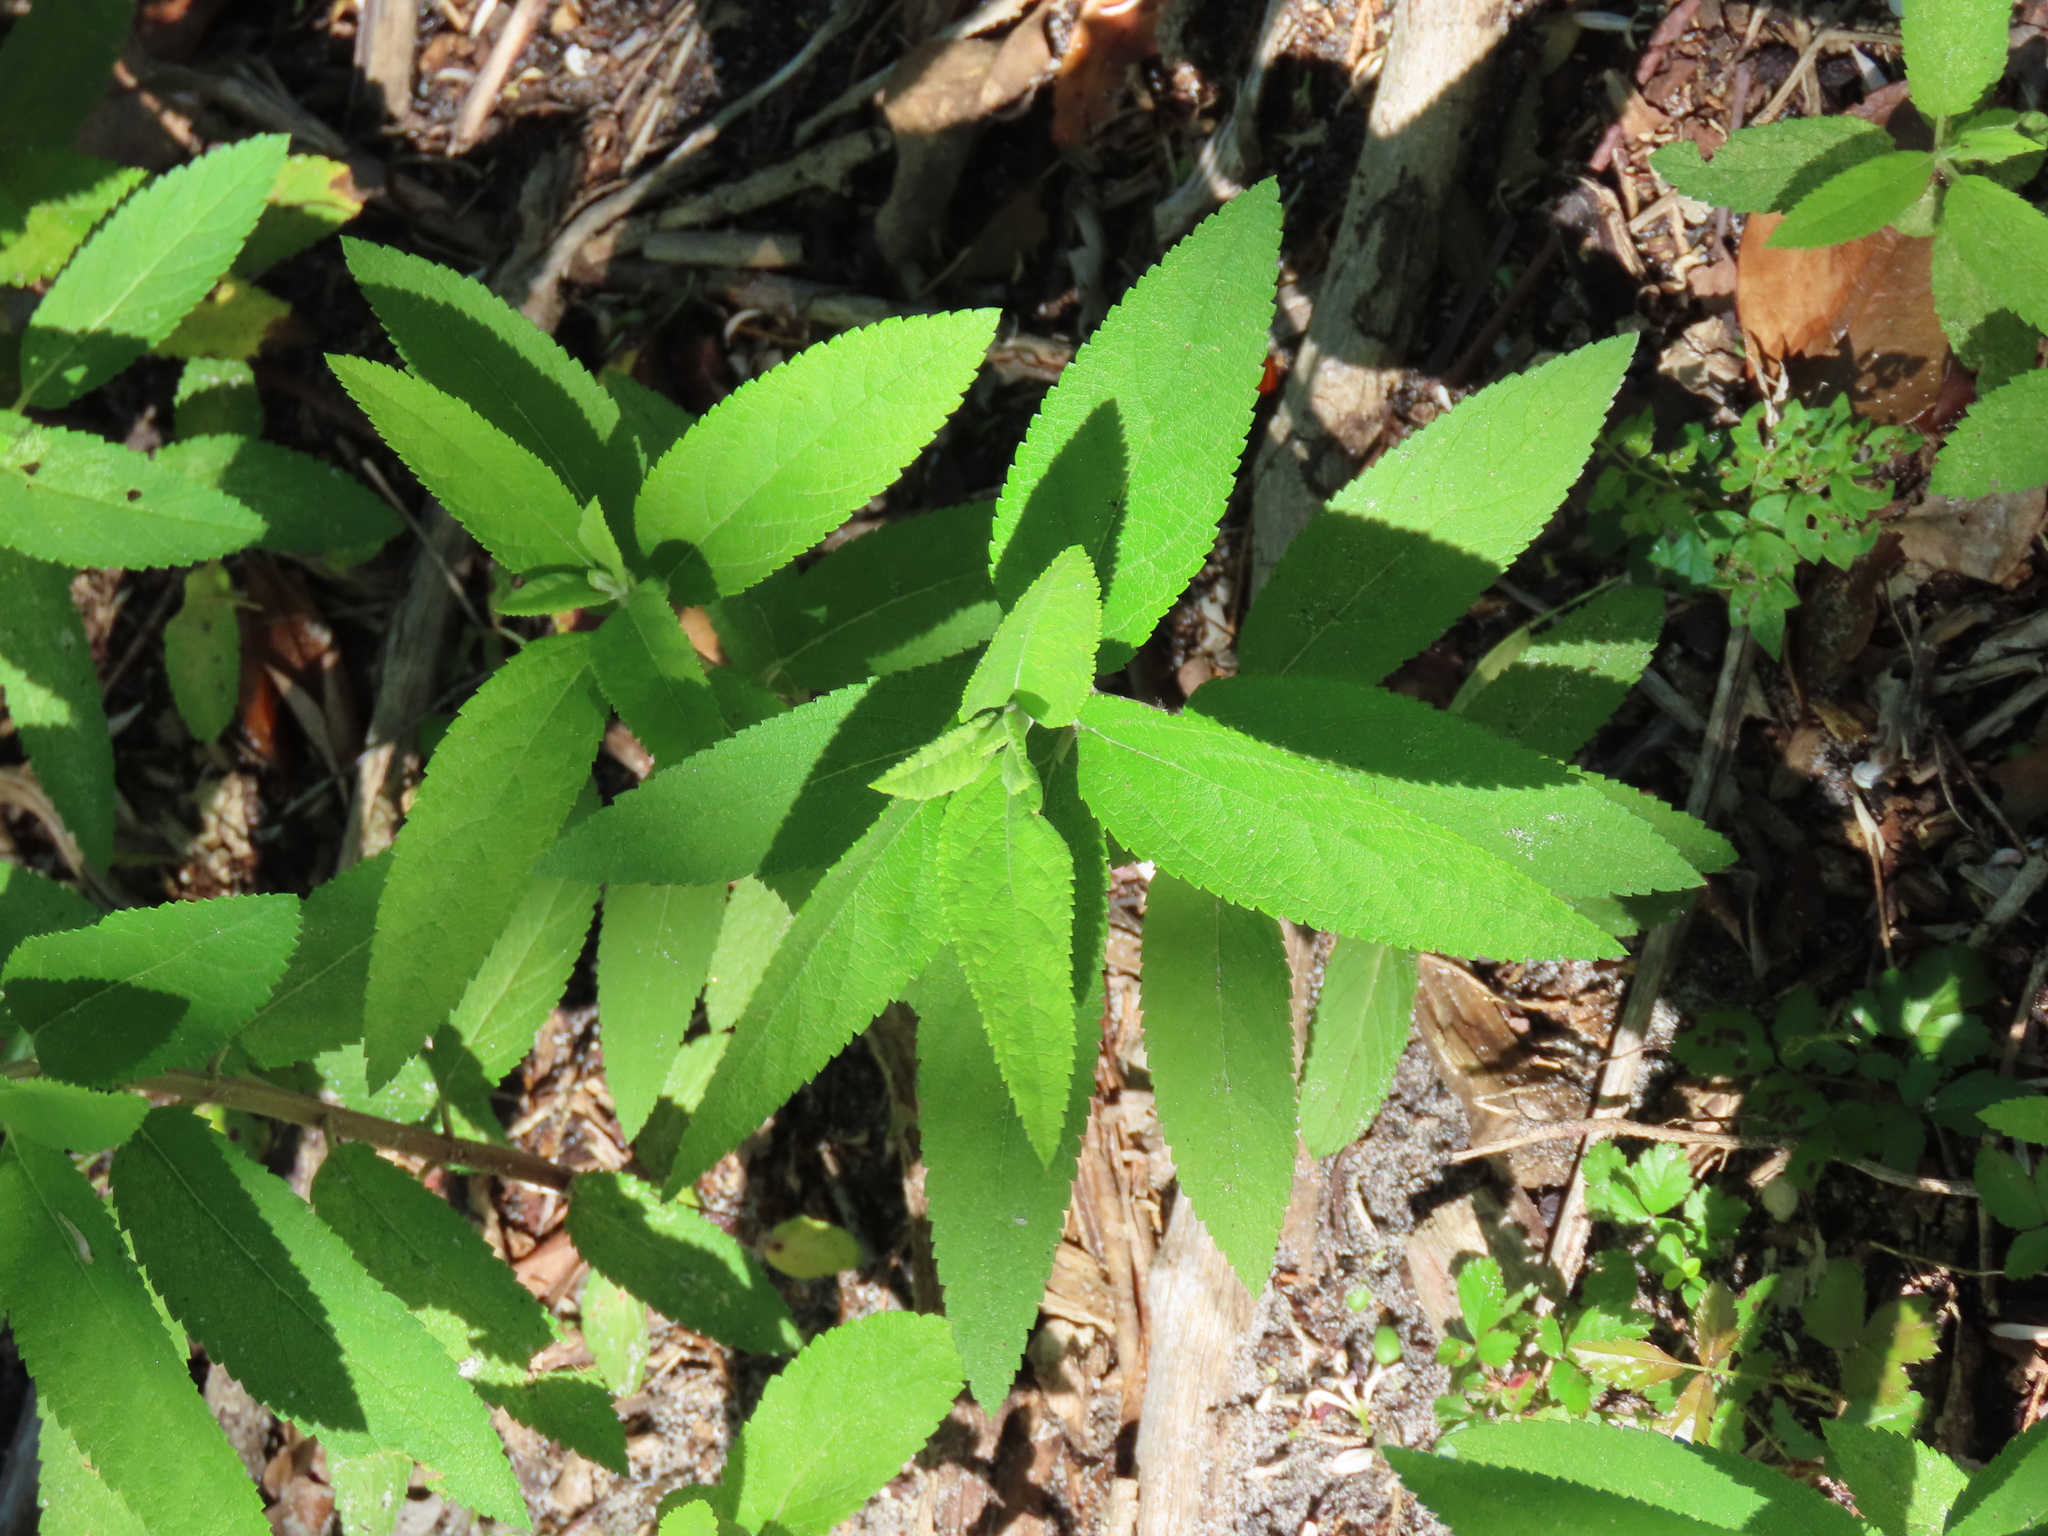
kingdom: Plantae
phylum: Tracheophyta
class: Magnoliopsida
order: Lamiales
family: Lamiaceae
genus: Teucrium
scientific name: Teucrium canadense
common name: American germander
